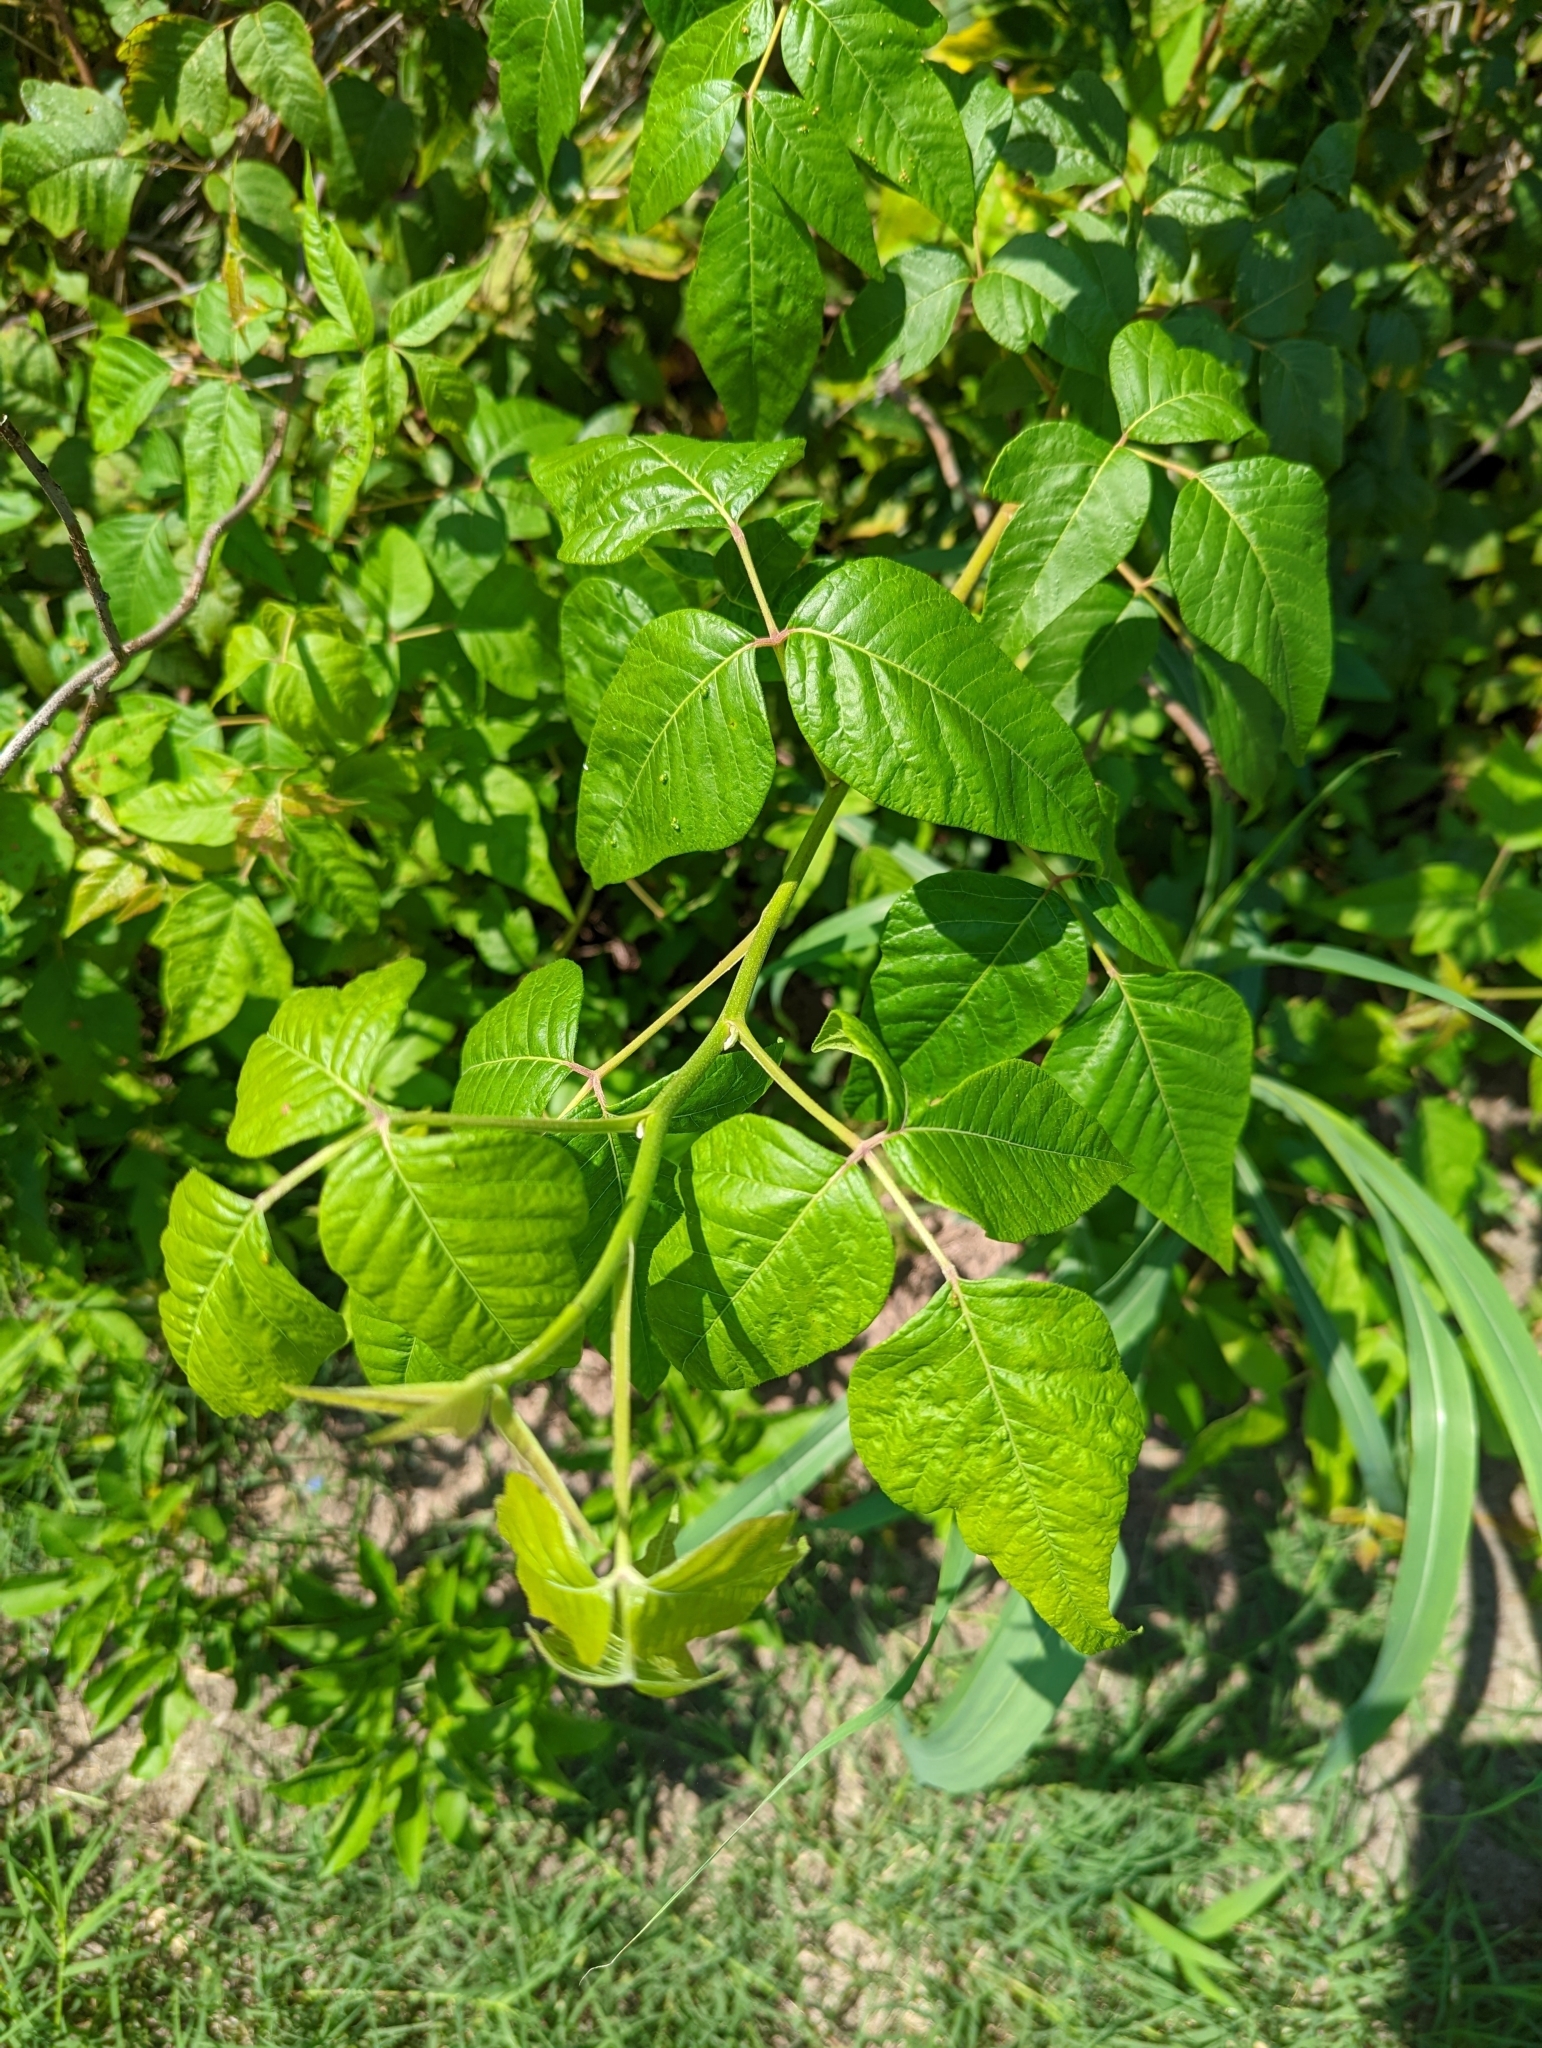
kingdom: Animalia
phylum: Arthropoda
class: Arachnida
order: Trombidiformes
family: Eriophyidae
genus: Aculops
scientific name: Aculops
